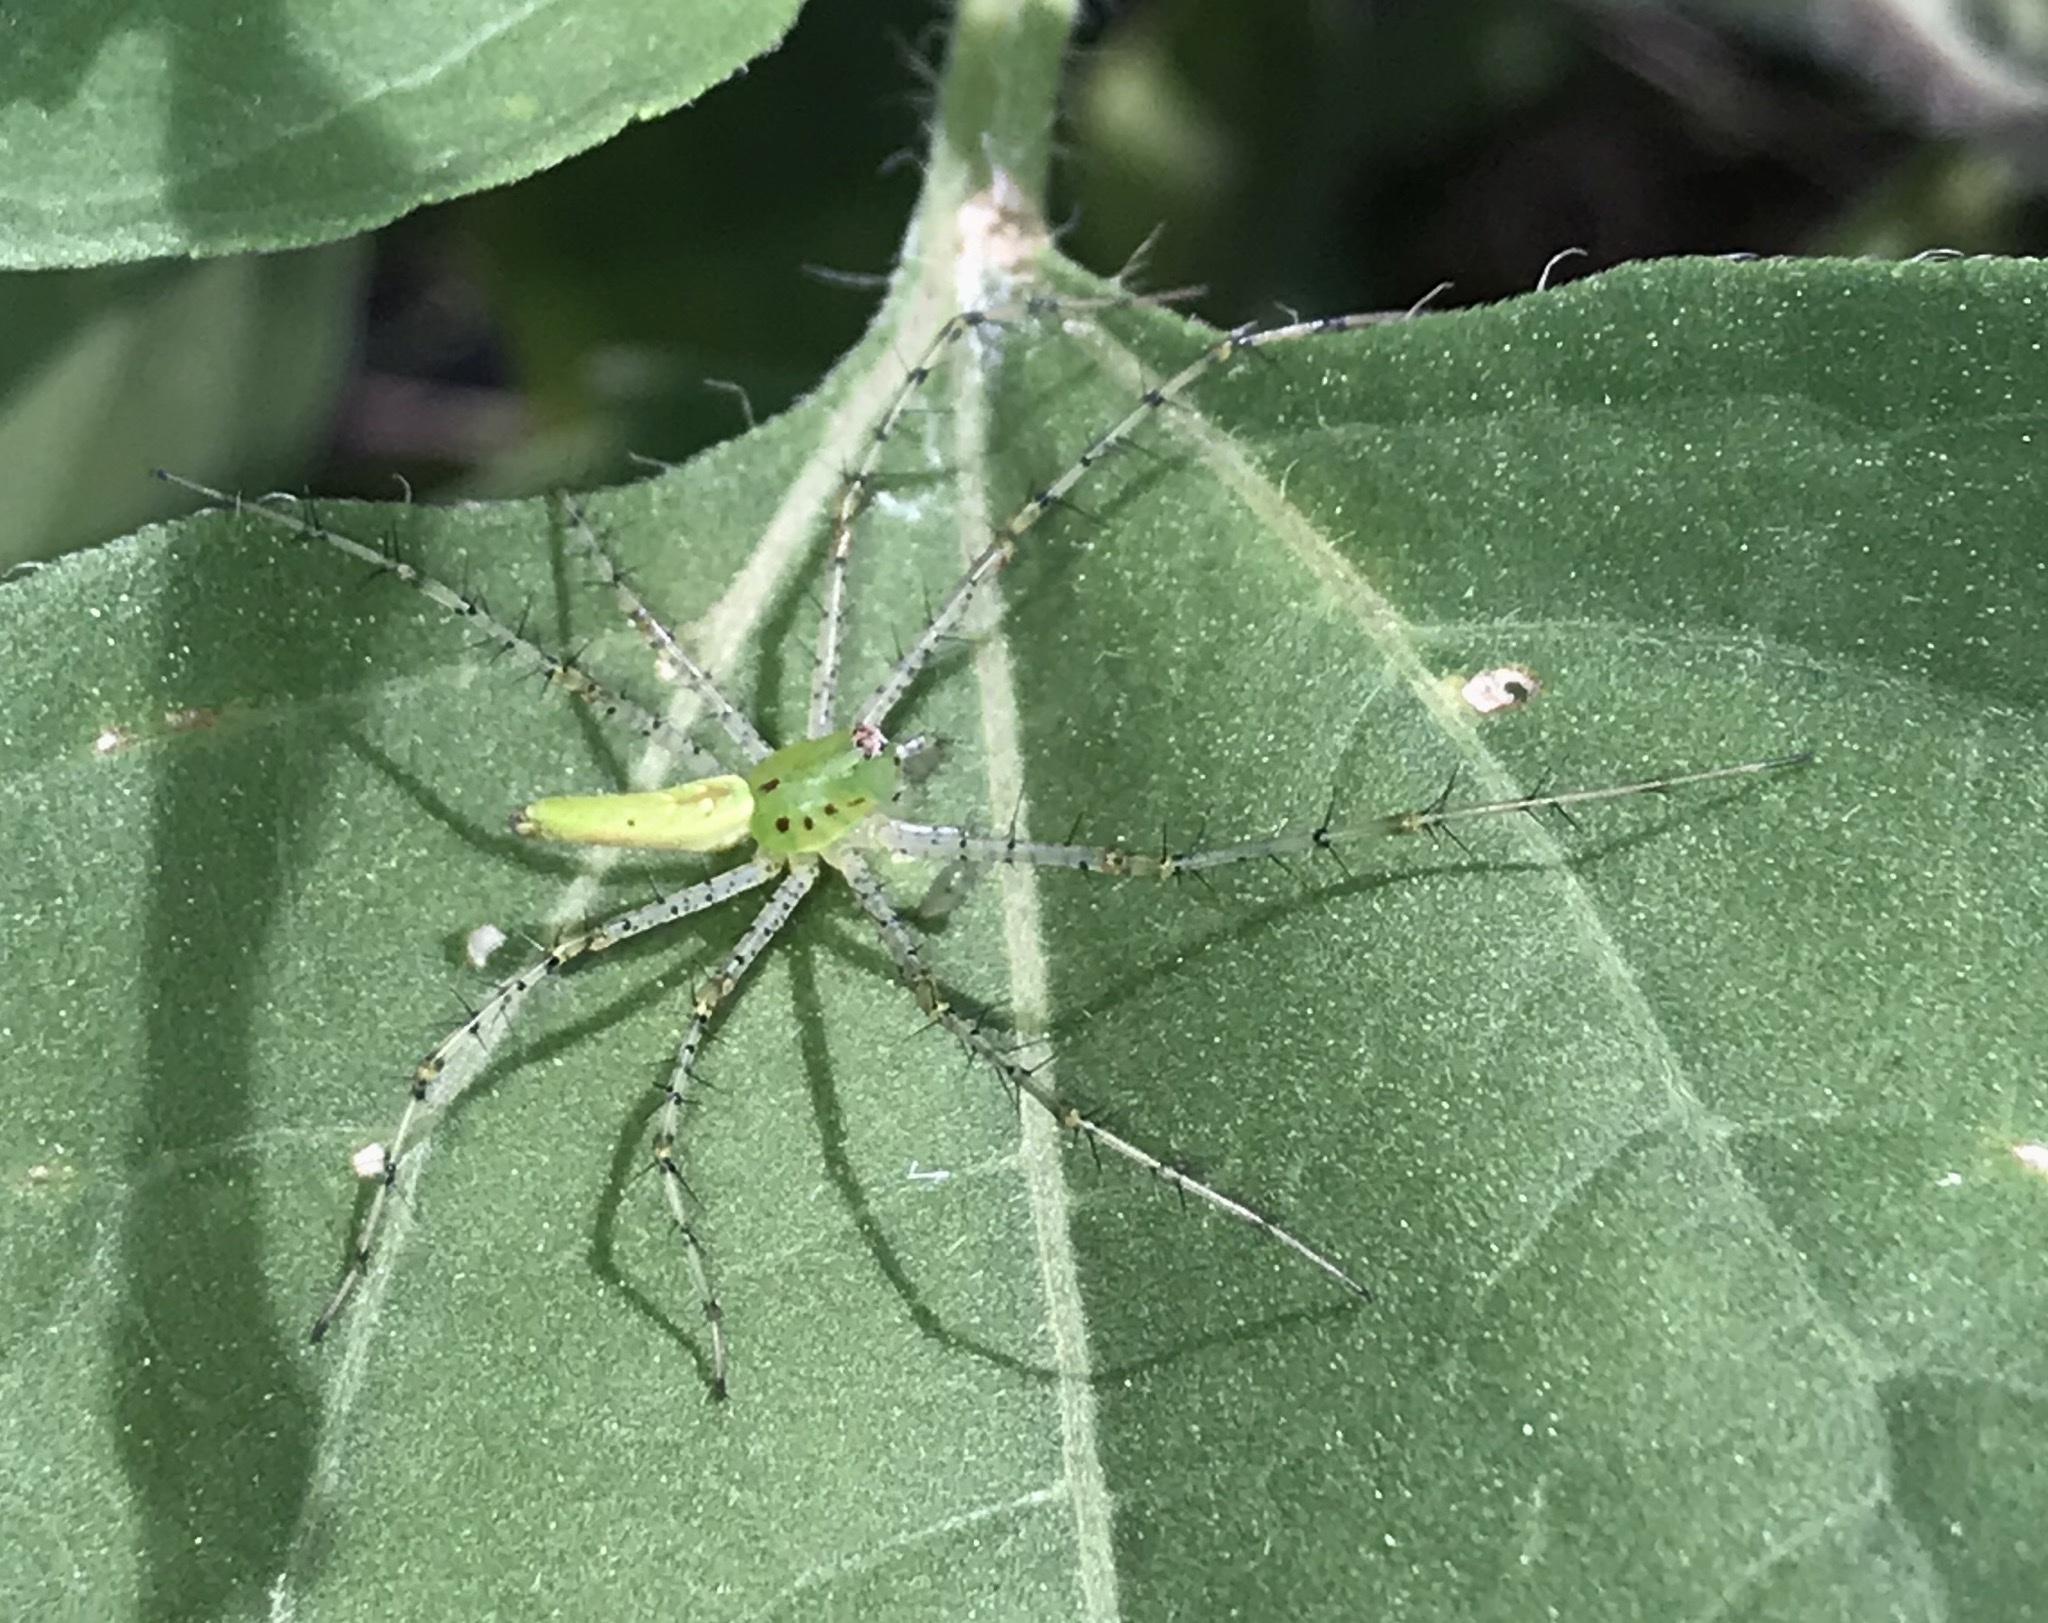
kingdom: Animalia
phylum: Arthropoda
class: Arachnida
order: Araneae
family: Oxyopidae
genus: Peucetia
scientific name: Peucetia viridans
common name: Lynx spiders
